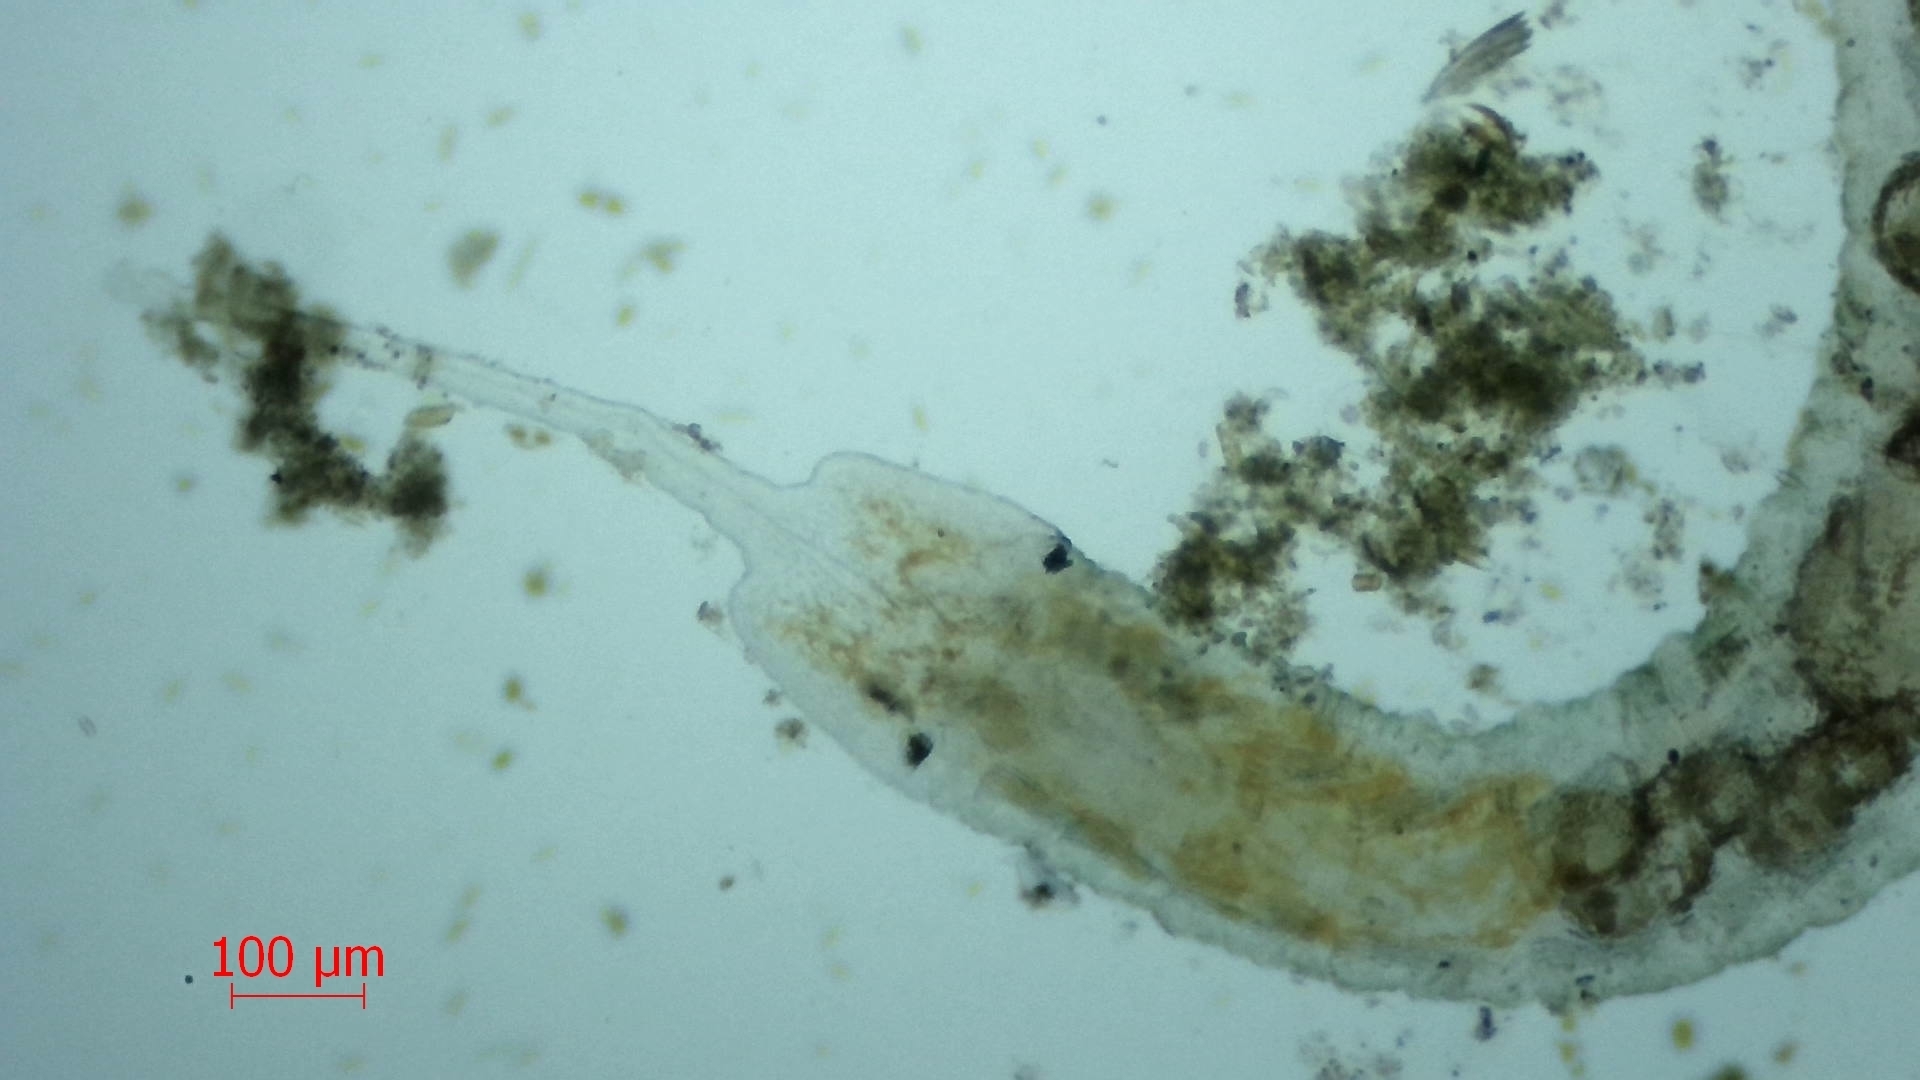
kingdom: Animalia
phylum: Annelida
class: Clitellata
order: Tubificida
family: Naididae
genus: Stylaria
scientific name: Stylaria lacustris
